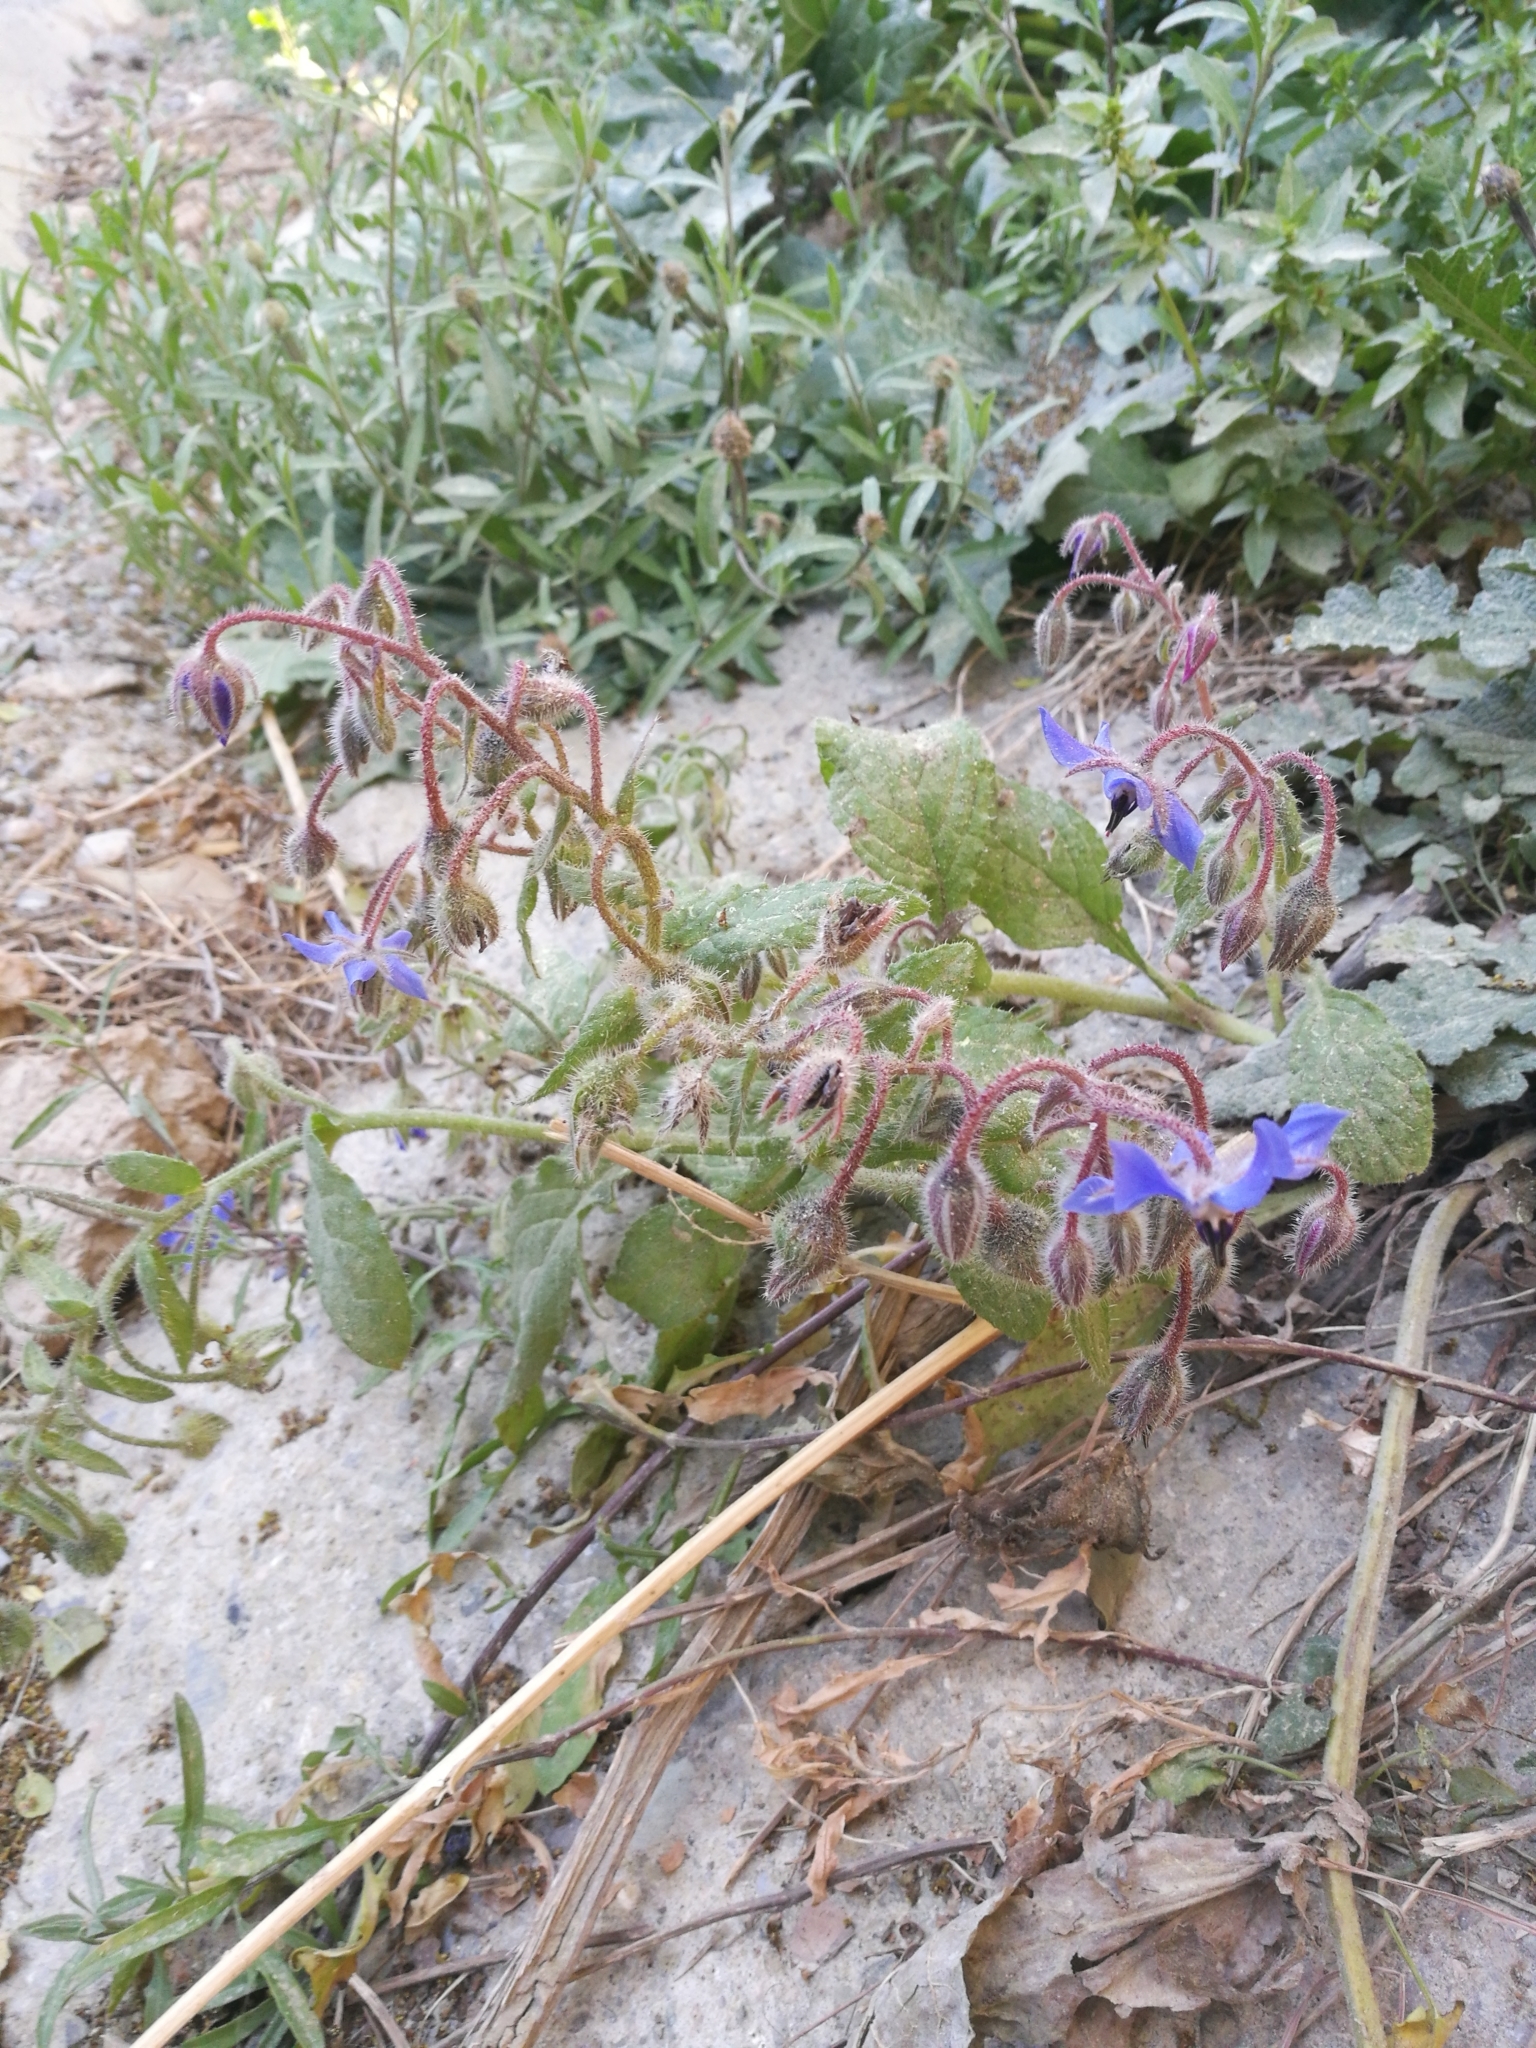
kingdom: Plantae
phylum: Tracheophyta
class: Magnoliopsida
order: Boraginales
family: Boraginaceae
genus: Borago
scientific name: Borago officinalis
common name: Borage
